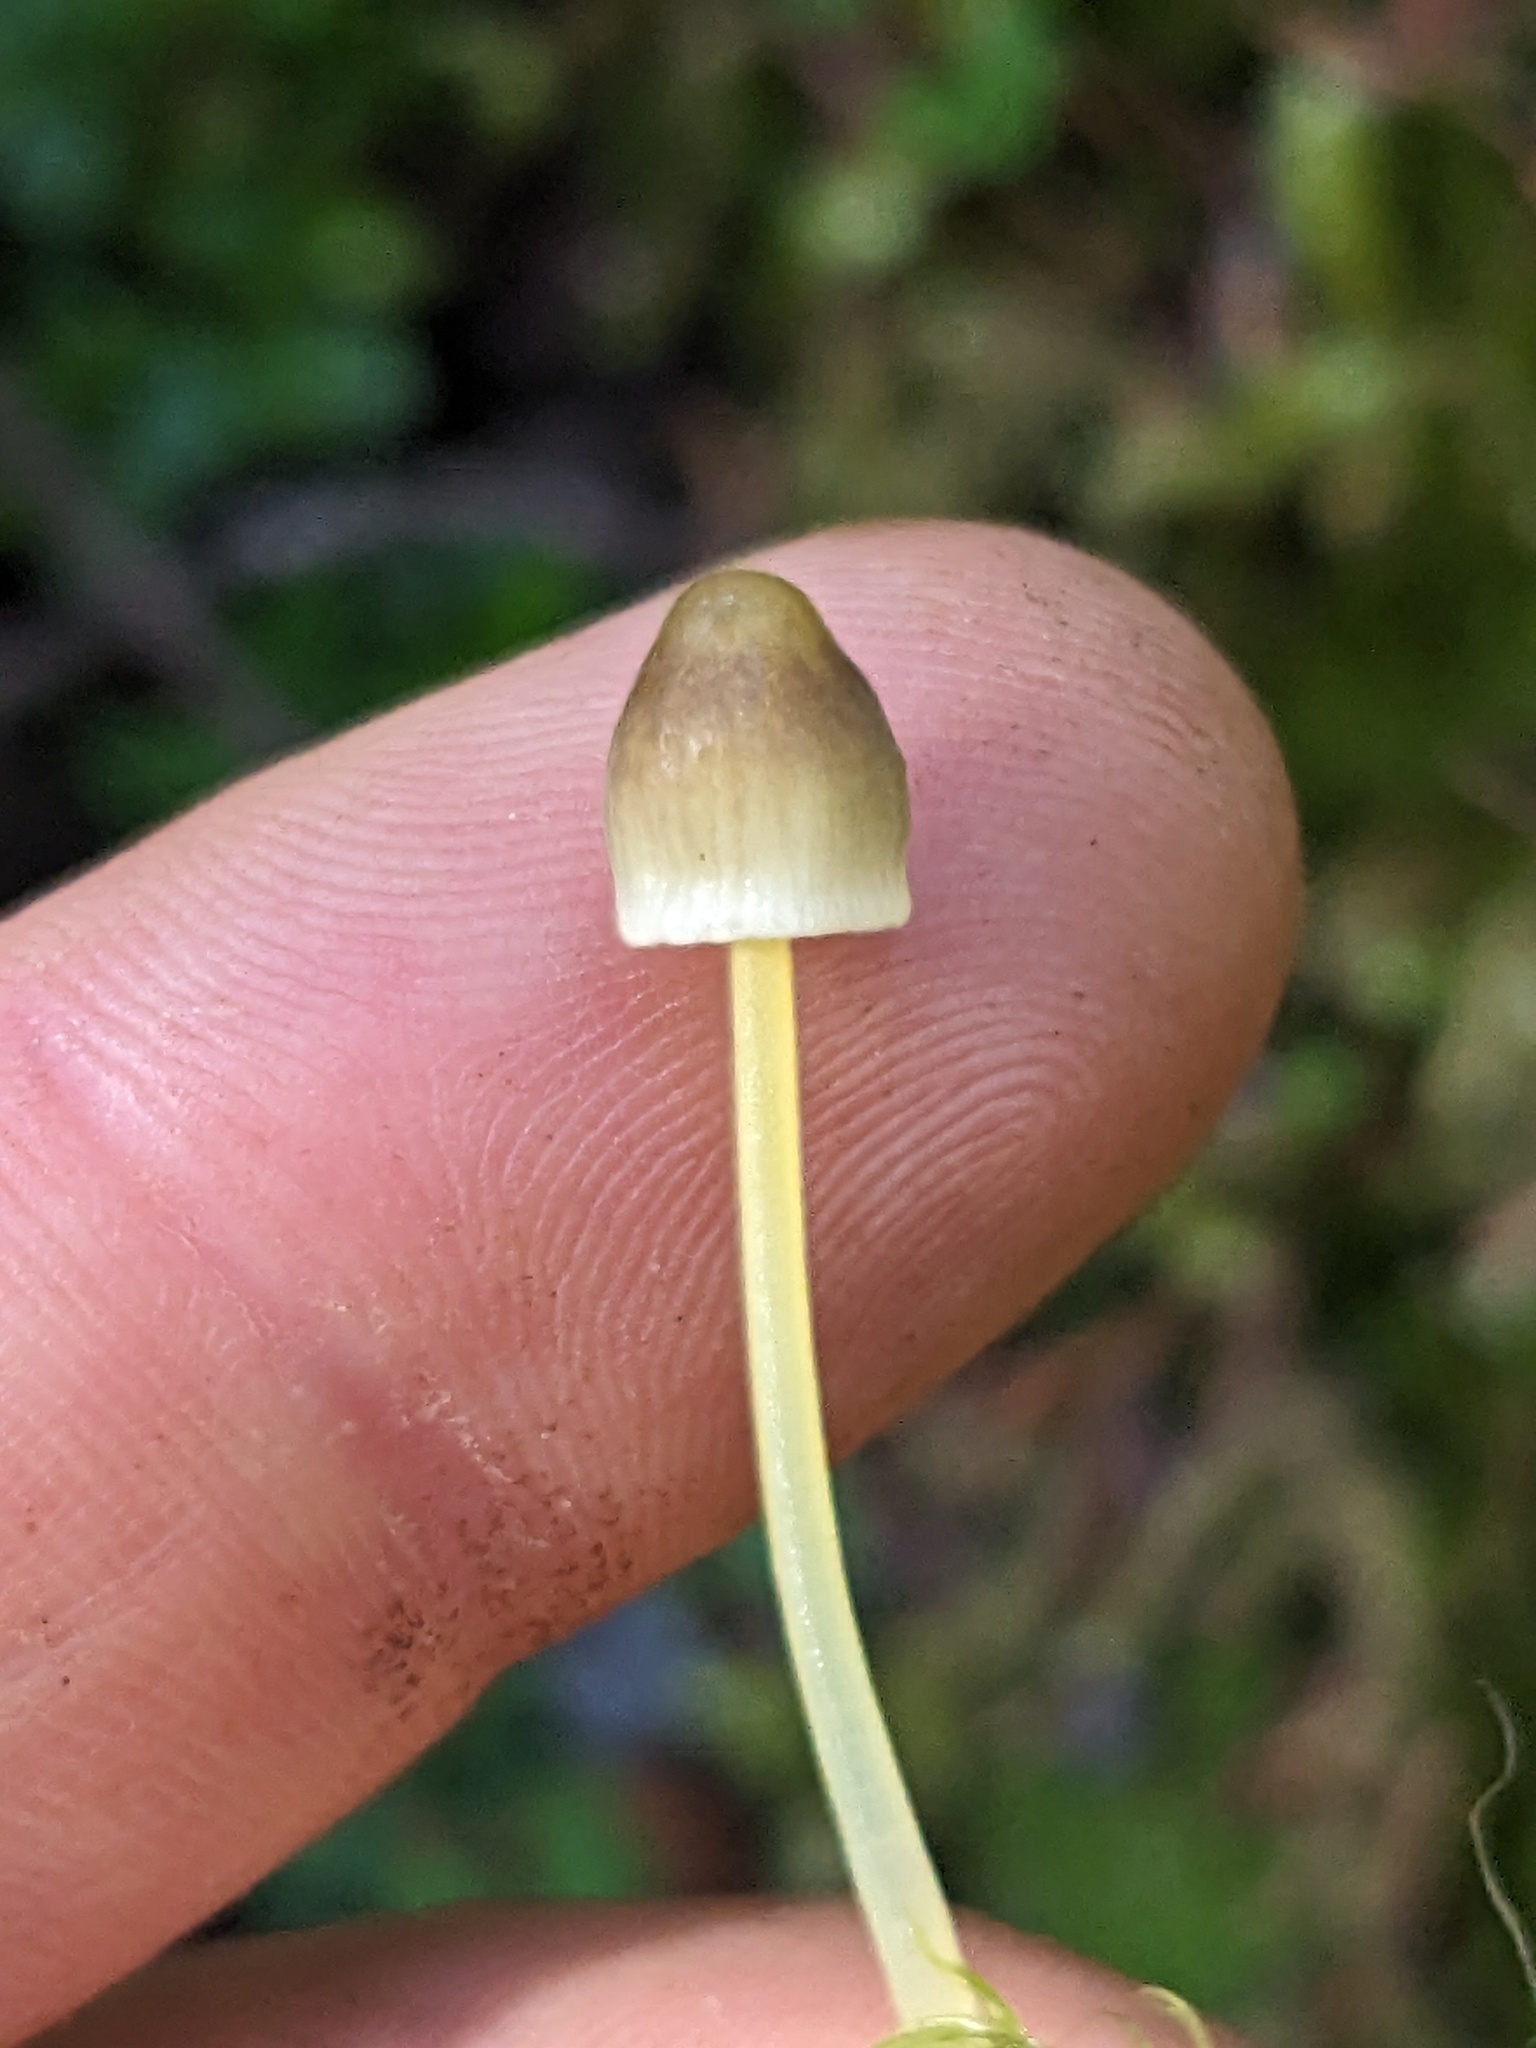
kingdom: Fungi
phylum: Basidiomycota
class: Agaricomycetes
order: Agaricales
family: Mycenaceae
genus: Mycena
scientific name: Mycena epipterygia
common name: Yellowleg bonnet
